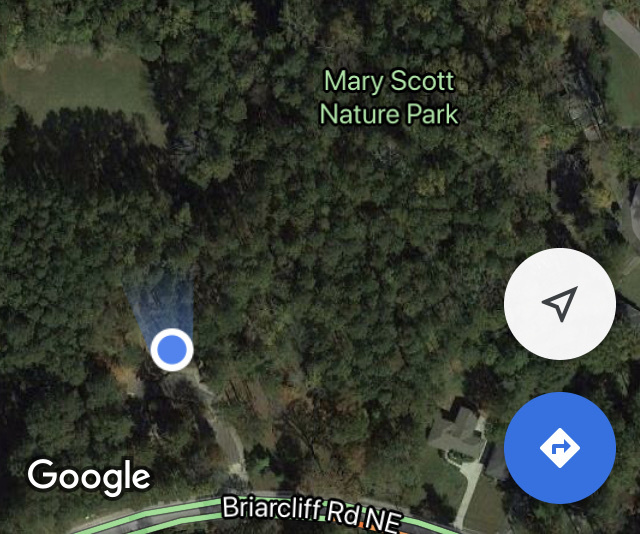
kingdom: Animalia
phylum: Chordata
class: Aves
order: Strigiformes
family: Strigidae
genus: Strix
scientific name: Strix varia
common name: Barred owl
